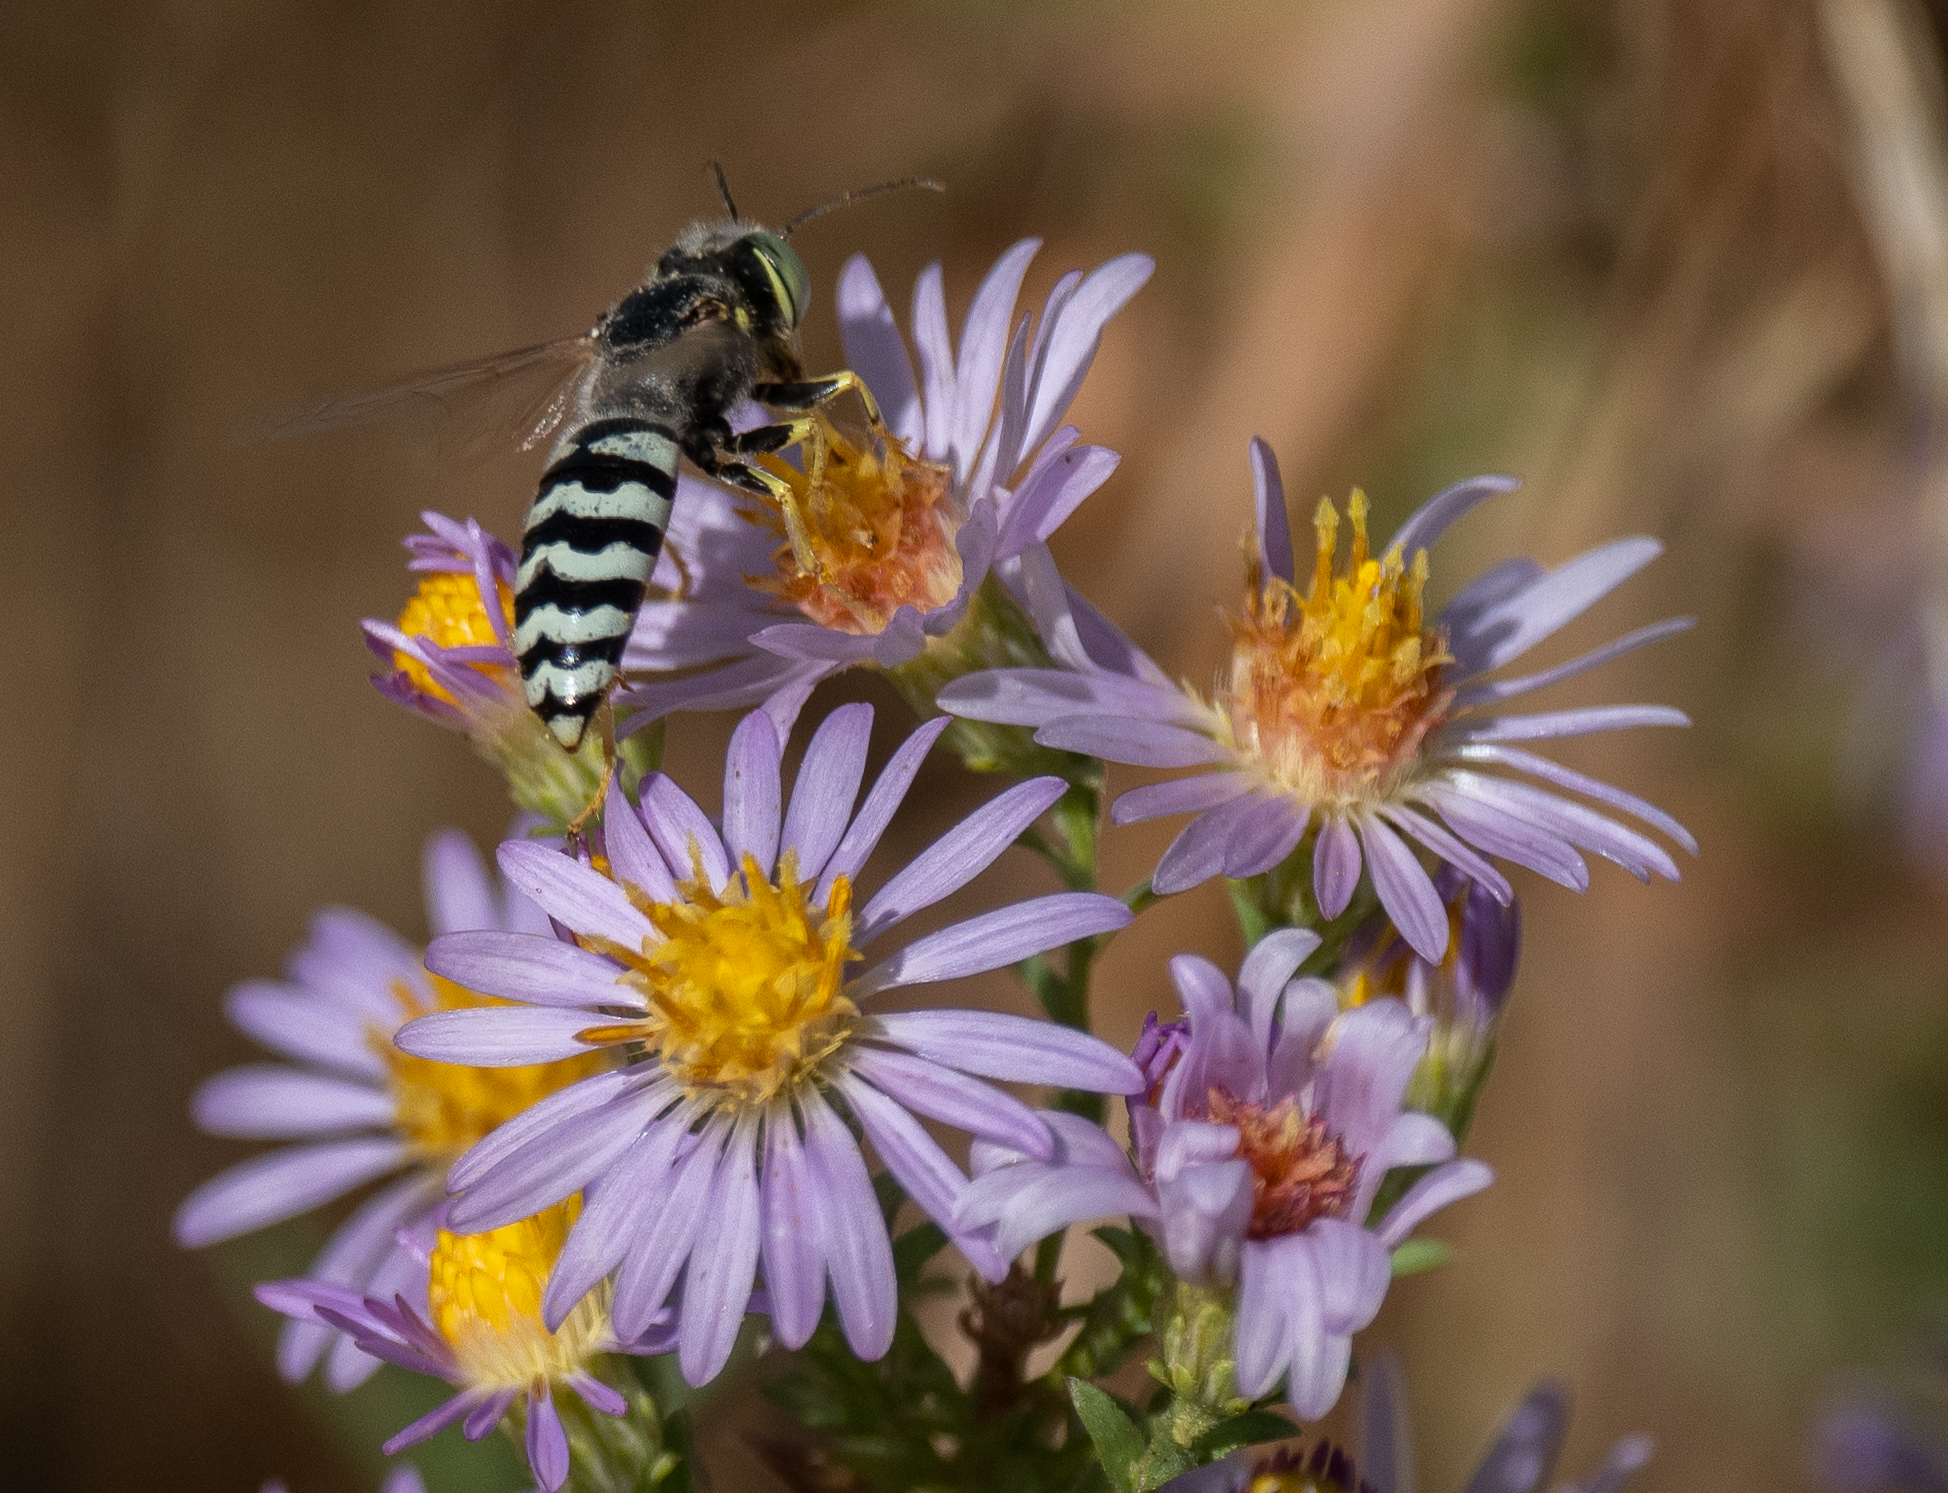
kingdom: Animalia
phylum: Arthropoda
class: Insecta
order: Hymenoptera
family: Crabronidae
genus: Bembix
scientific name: Bembix americana
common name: American sand wasp
